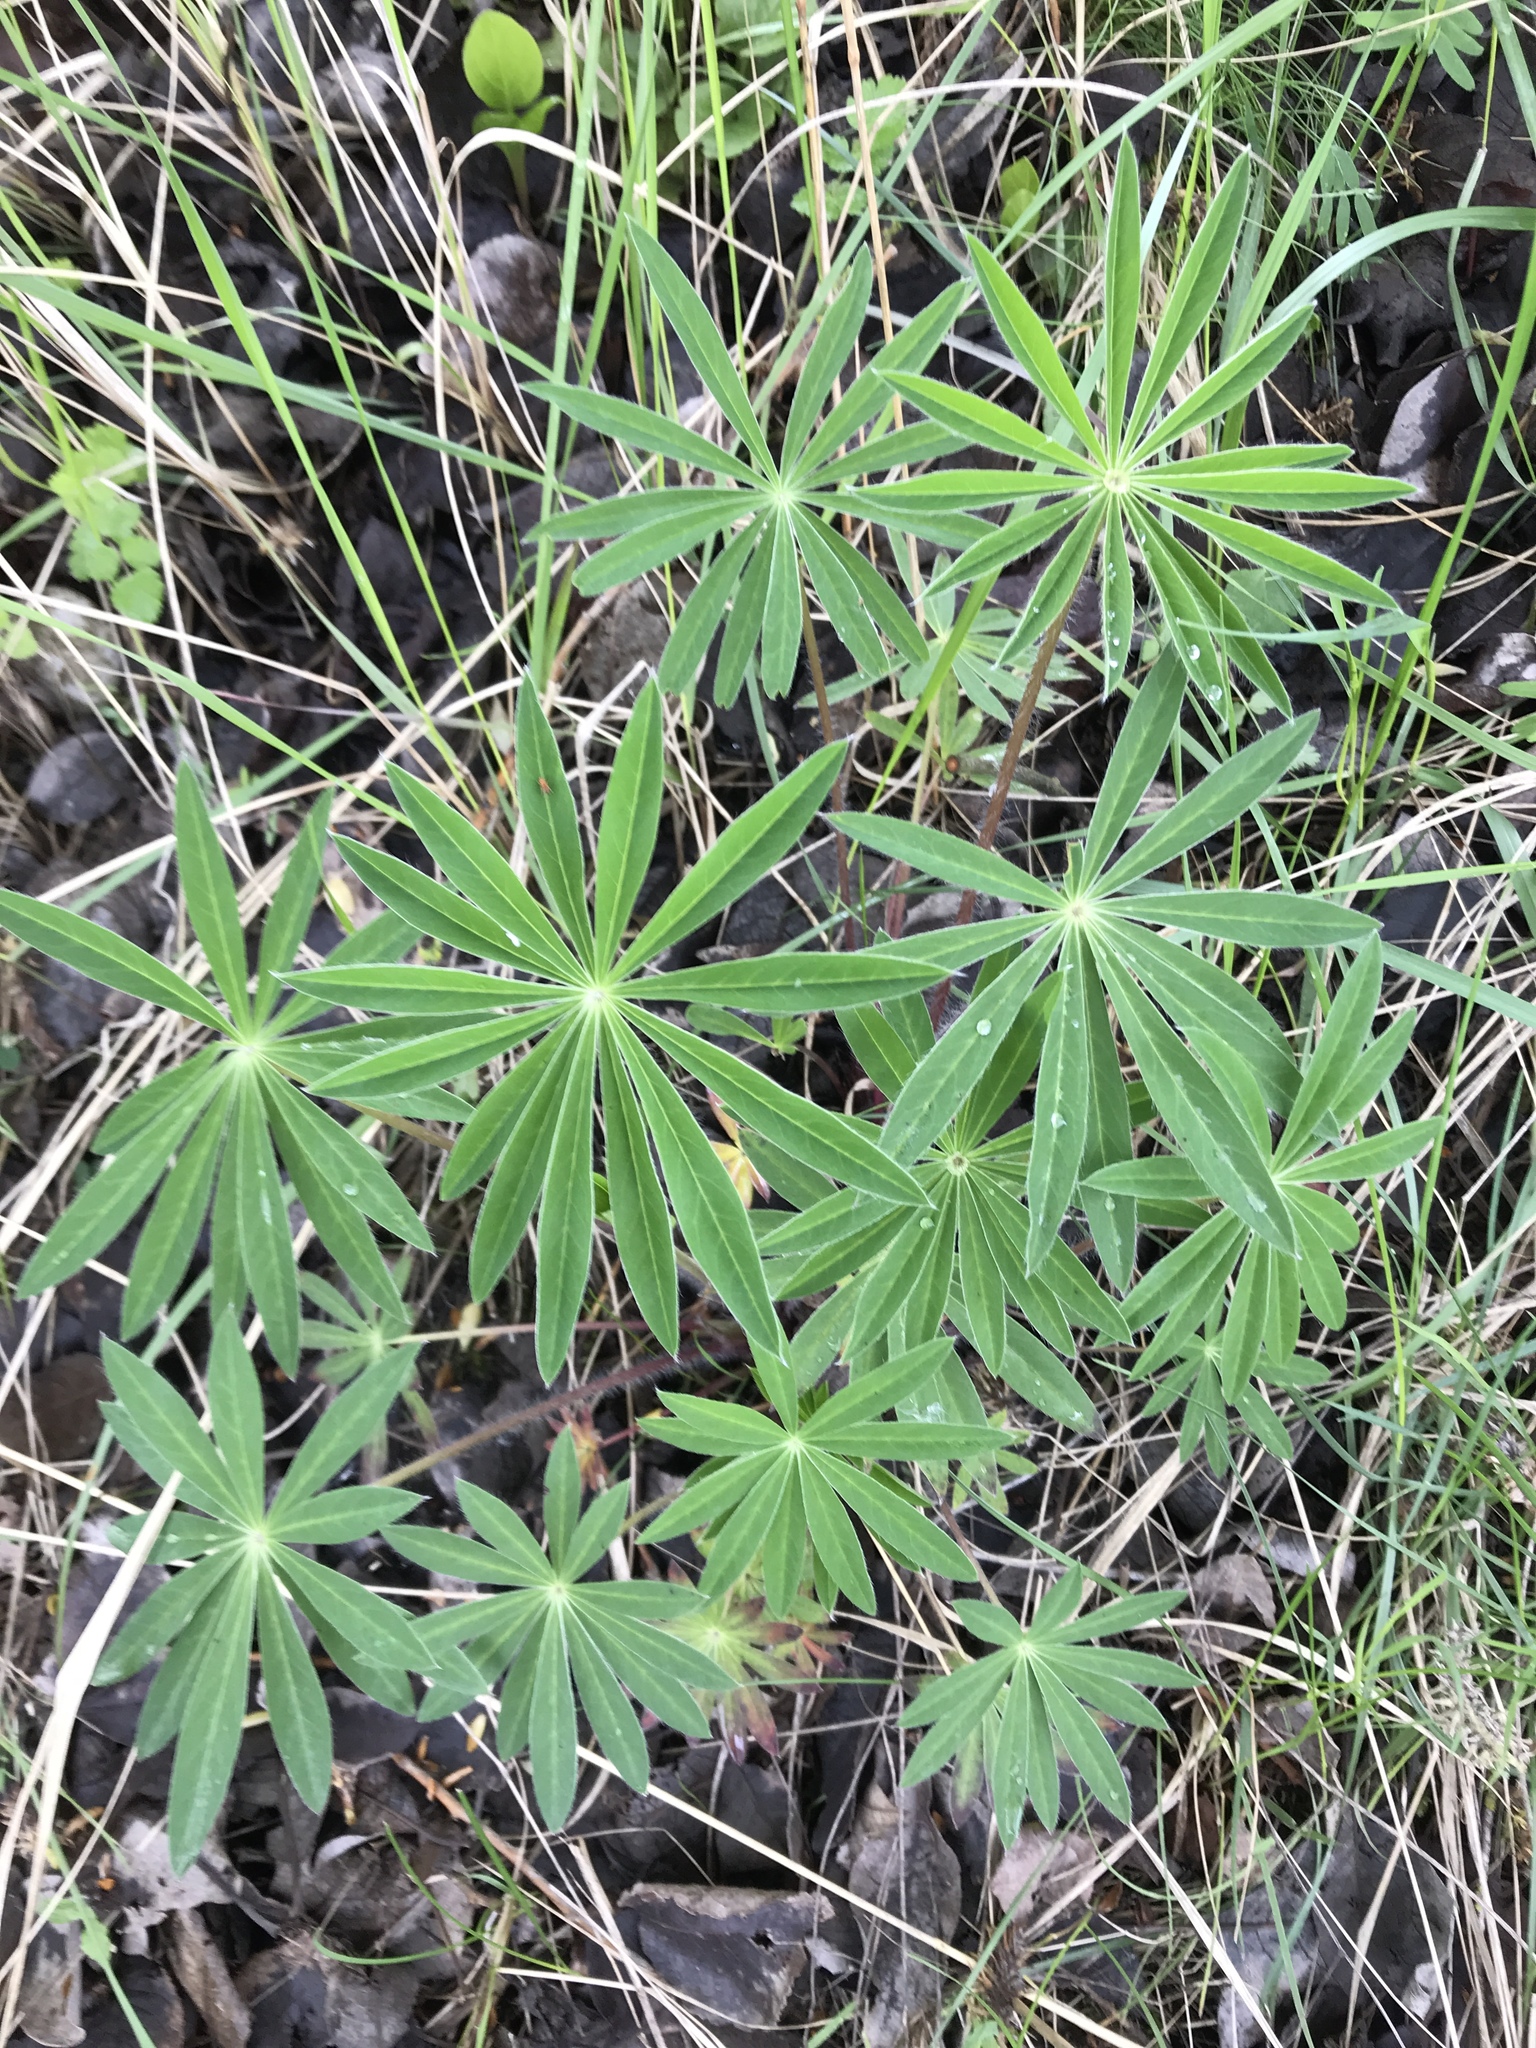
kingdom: Plantae
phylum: Tracheophyta
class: Magnoliopsida
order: Fabales
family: Fabaceae
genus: Lupinus
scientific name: Lupinus polyphyllus
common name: Garden lupin
